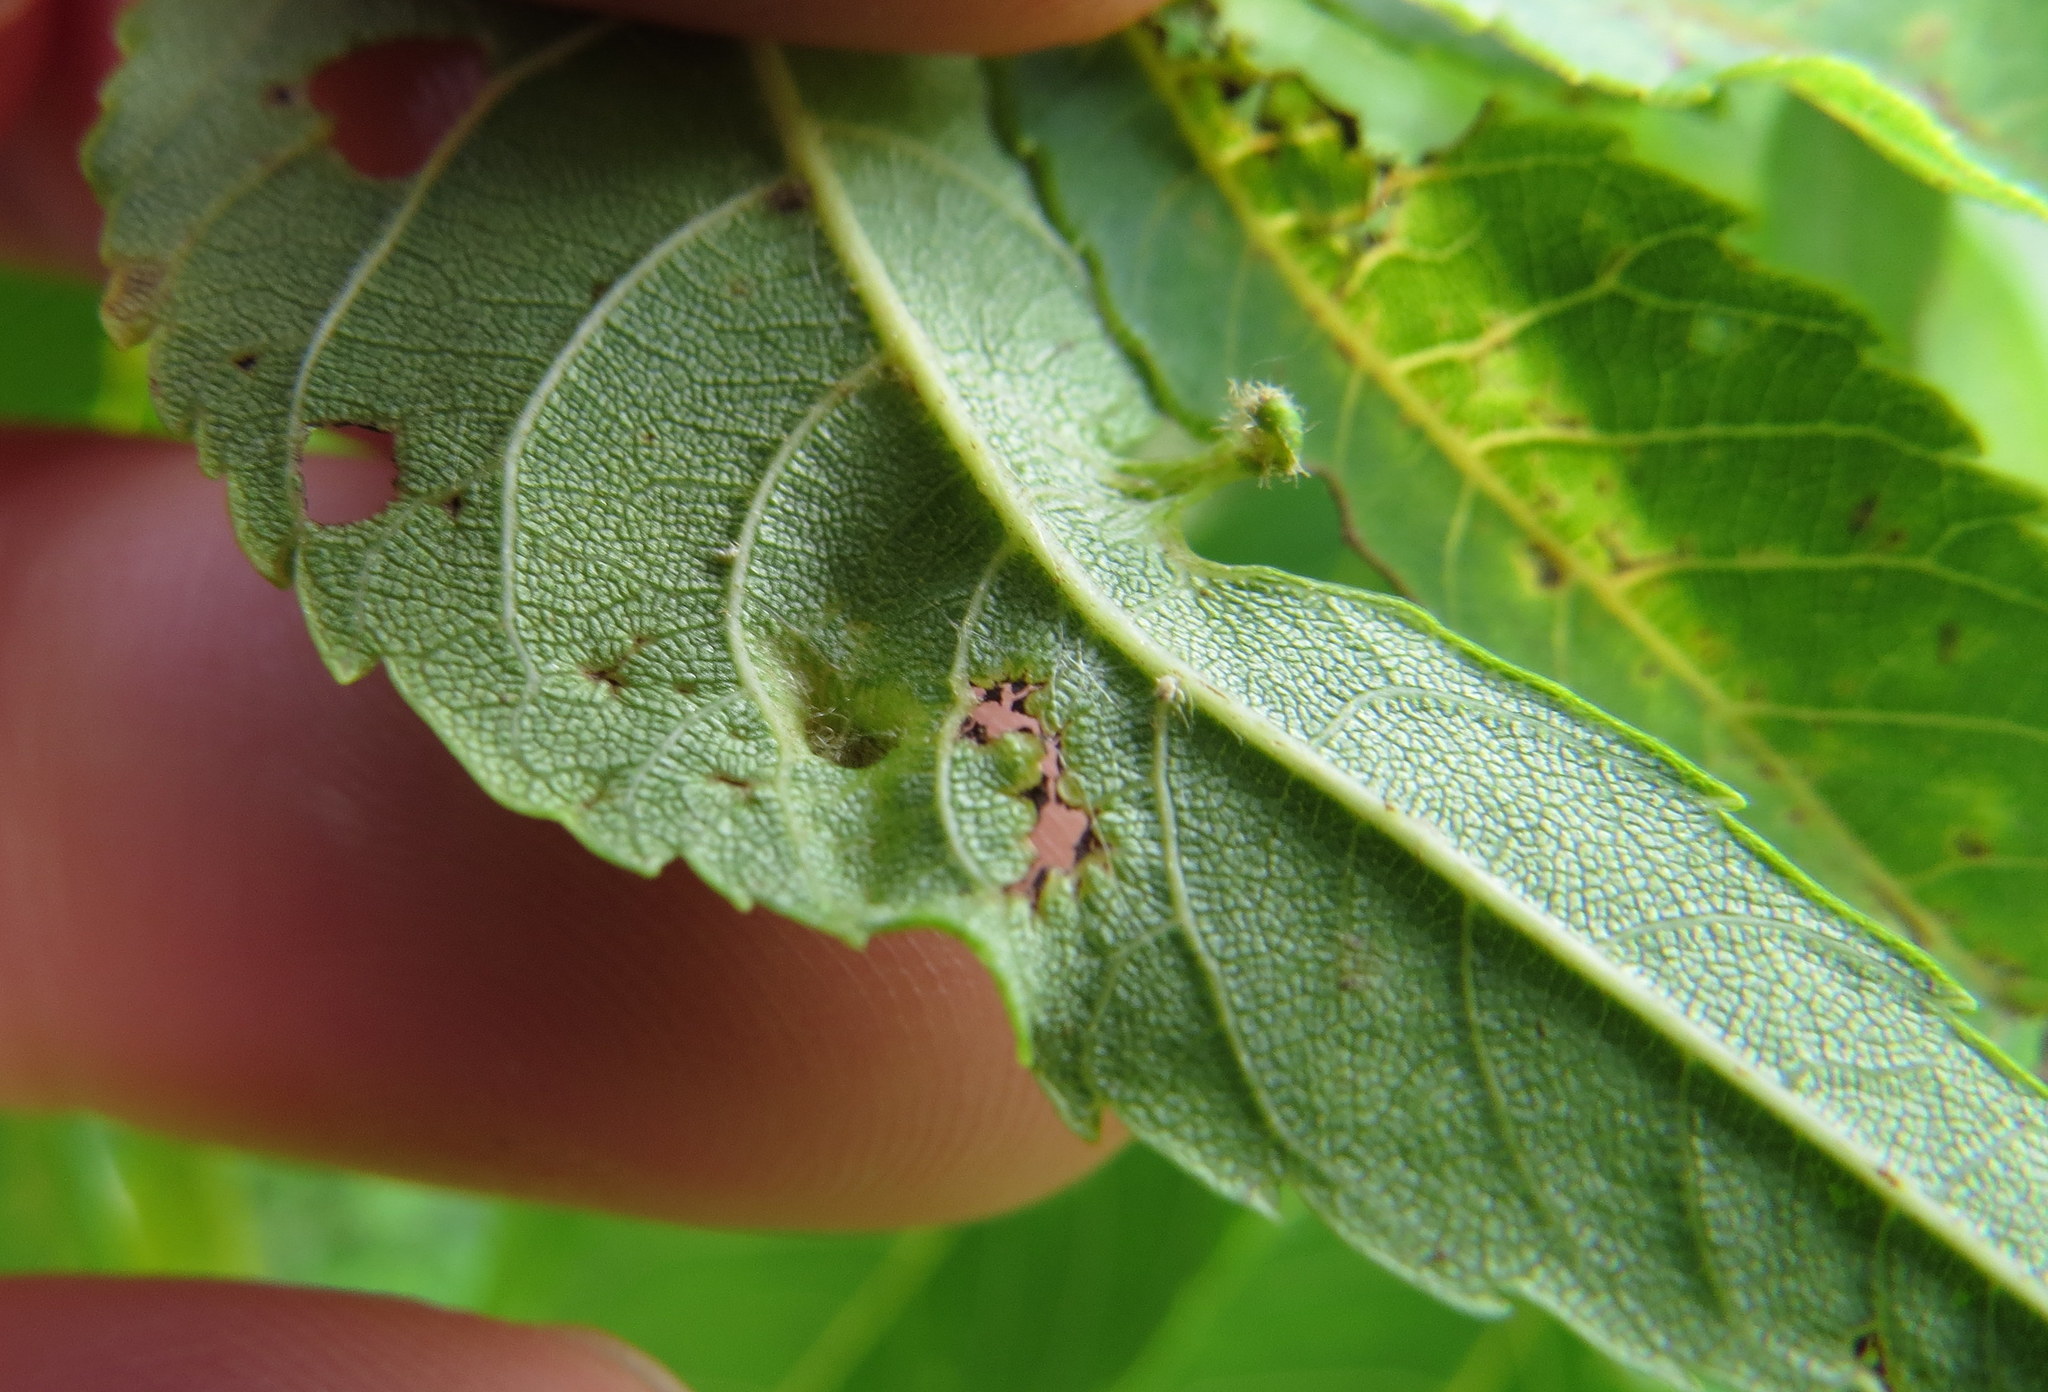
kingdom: Animalia
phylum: Arthropoda
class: Arachnida
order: Trombidiformes
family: Eriophyidae
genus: Aceria
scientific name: Aceria brachytarsus
